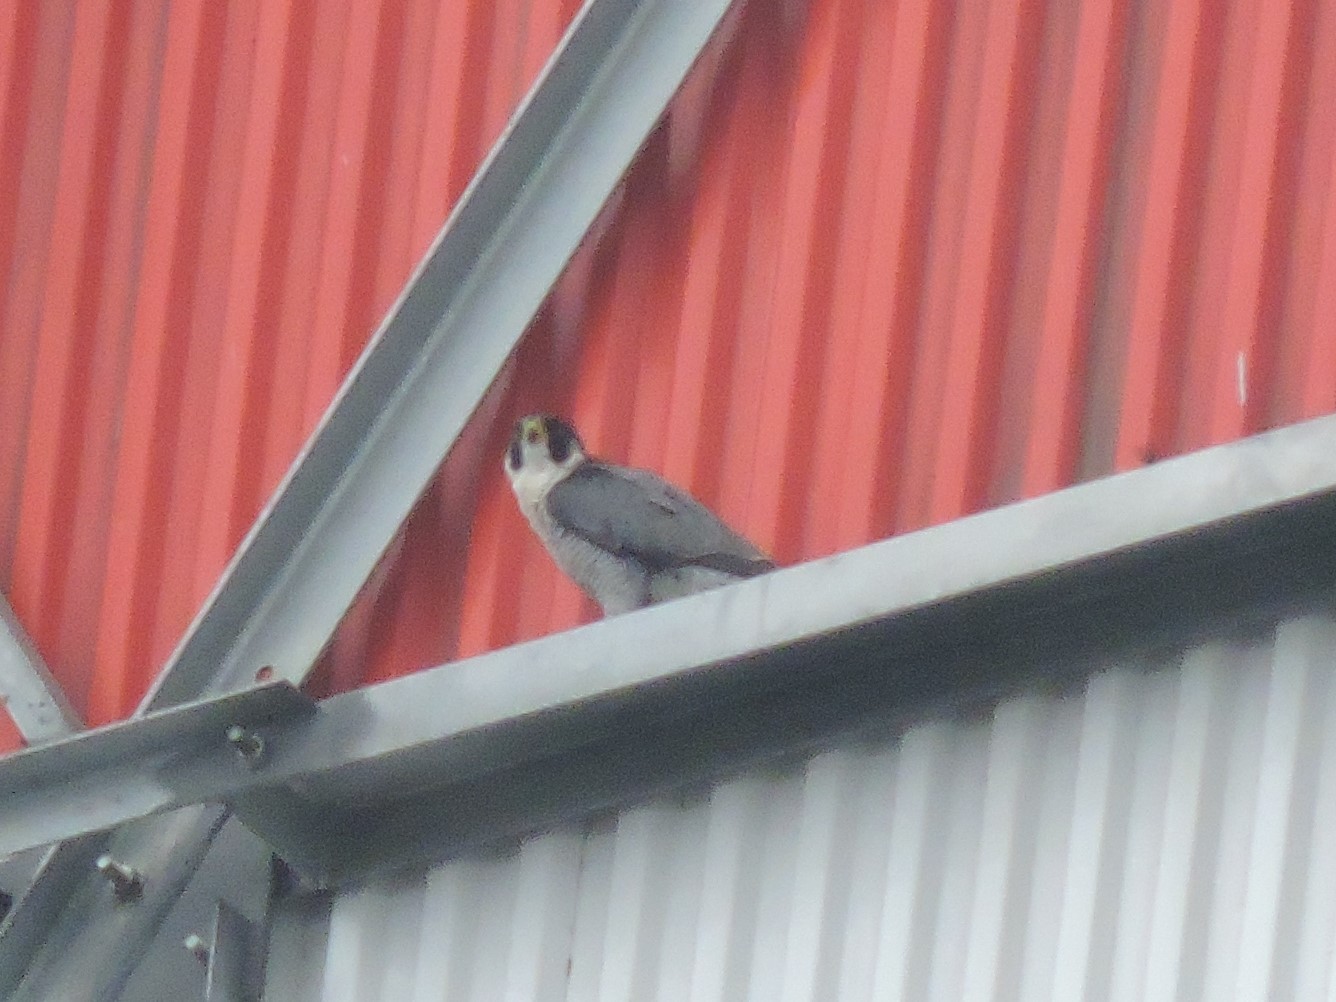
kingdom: Animalia
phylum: Chordata
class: Aves
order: Falconiformes
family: Falconidae
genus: Falco
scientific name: Falco peregrinus
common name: Peregrine falcon
